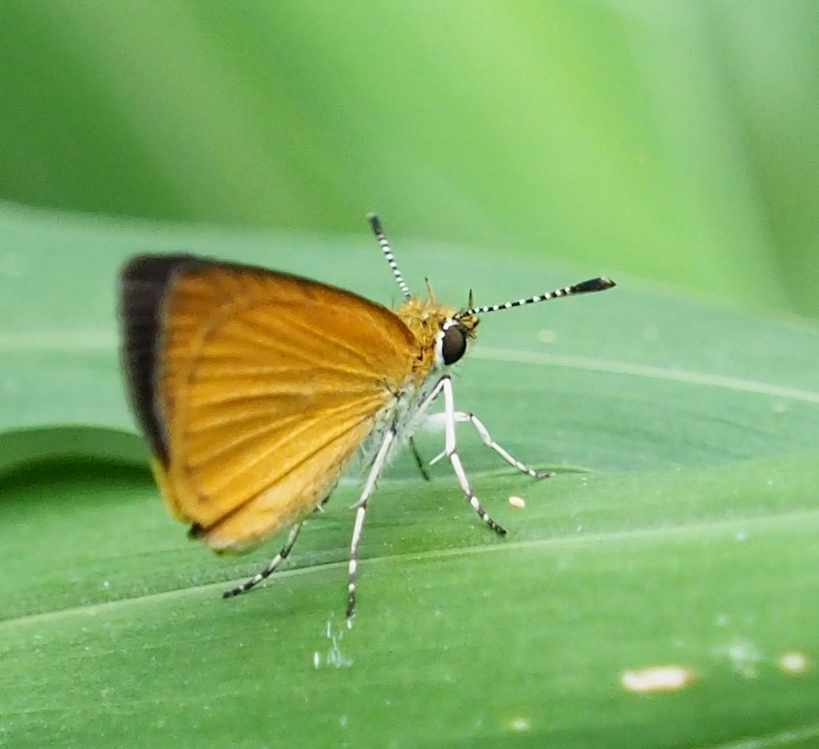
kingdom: Animalia
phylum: Arthropoda
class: Insecta
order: Lepidoptera
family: Hesperiidae
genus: Ancyloxypha
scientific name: Ancyloxypha numitor
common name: Least skipper
